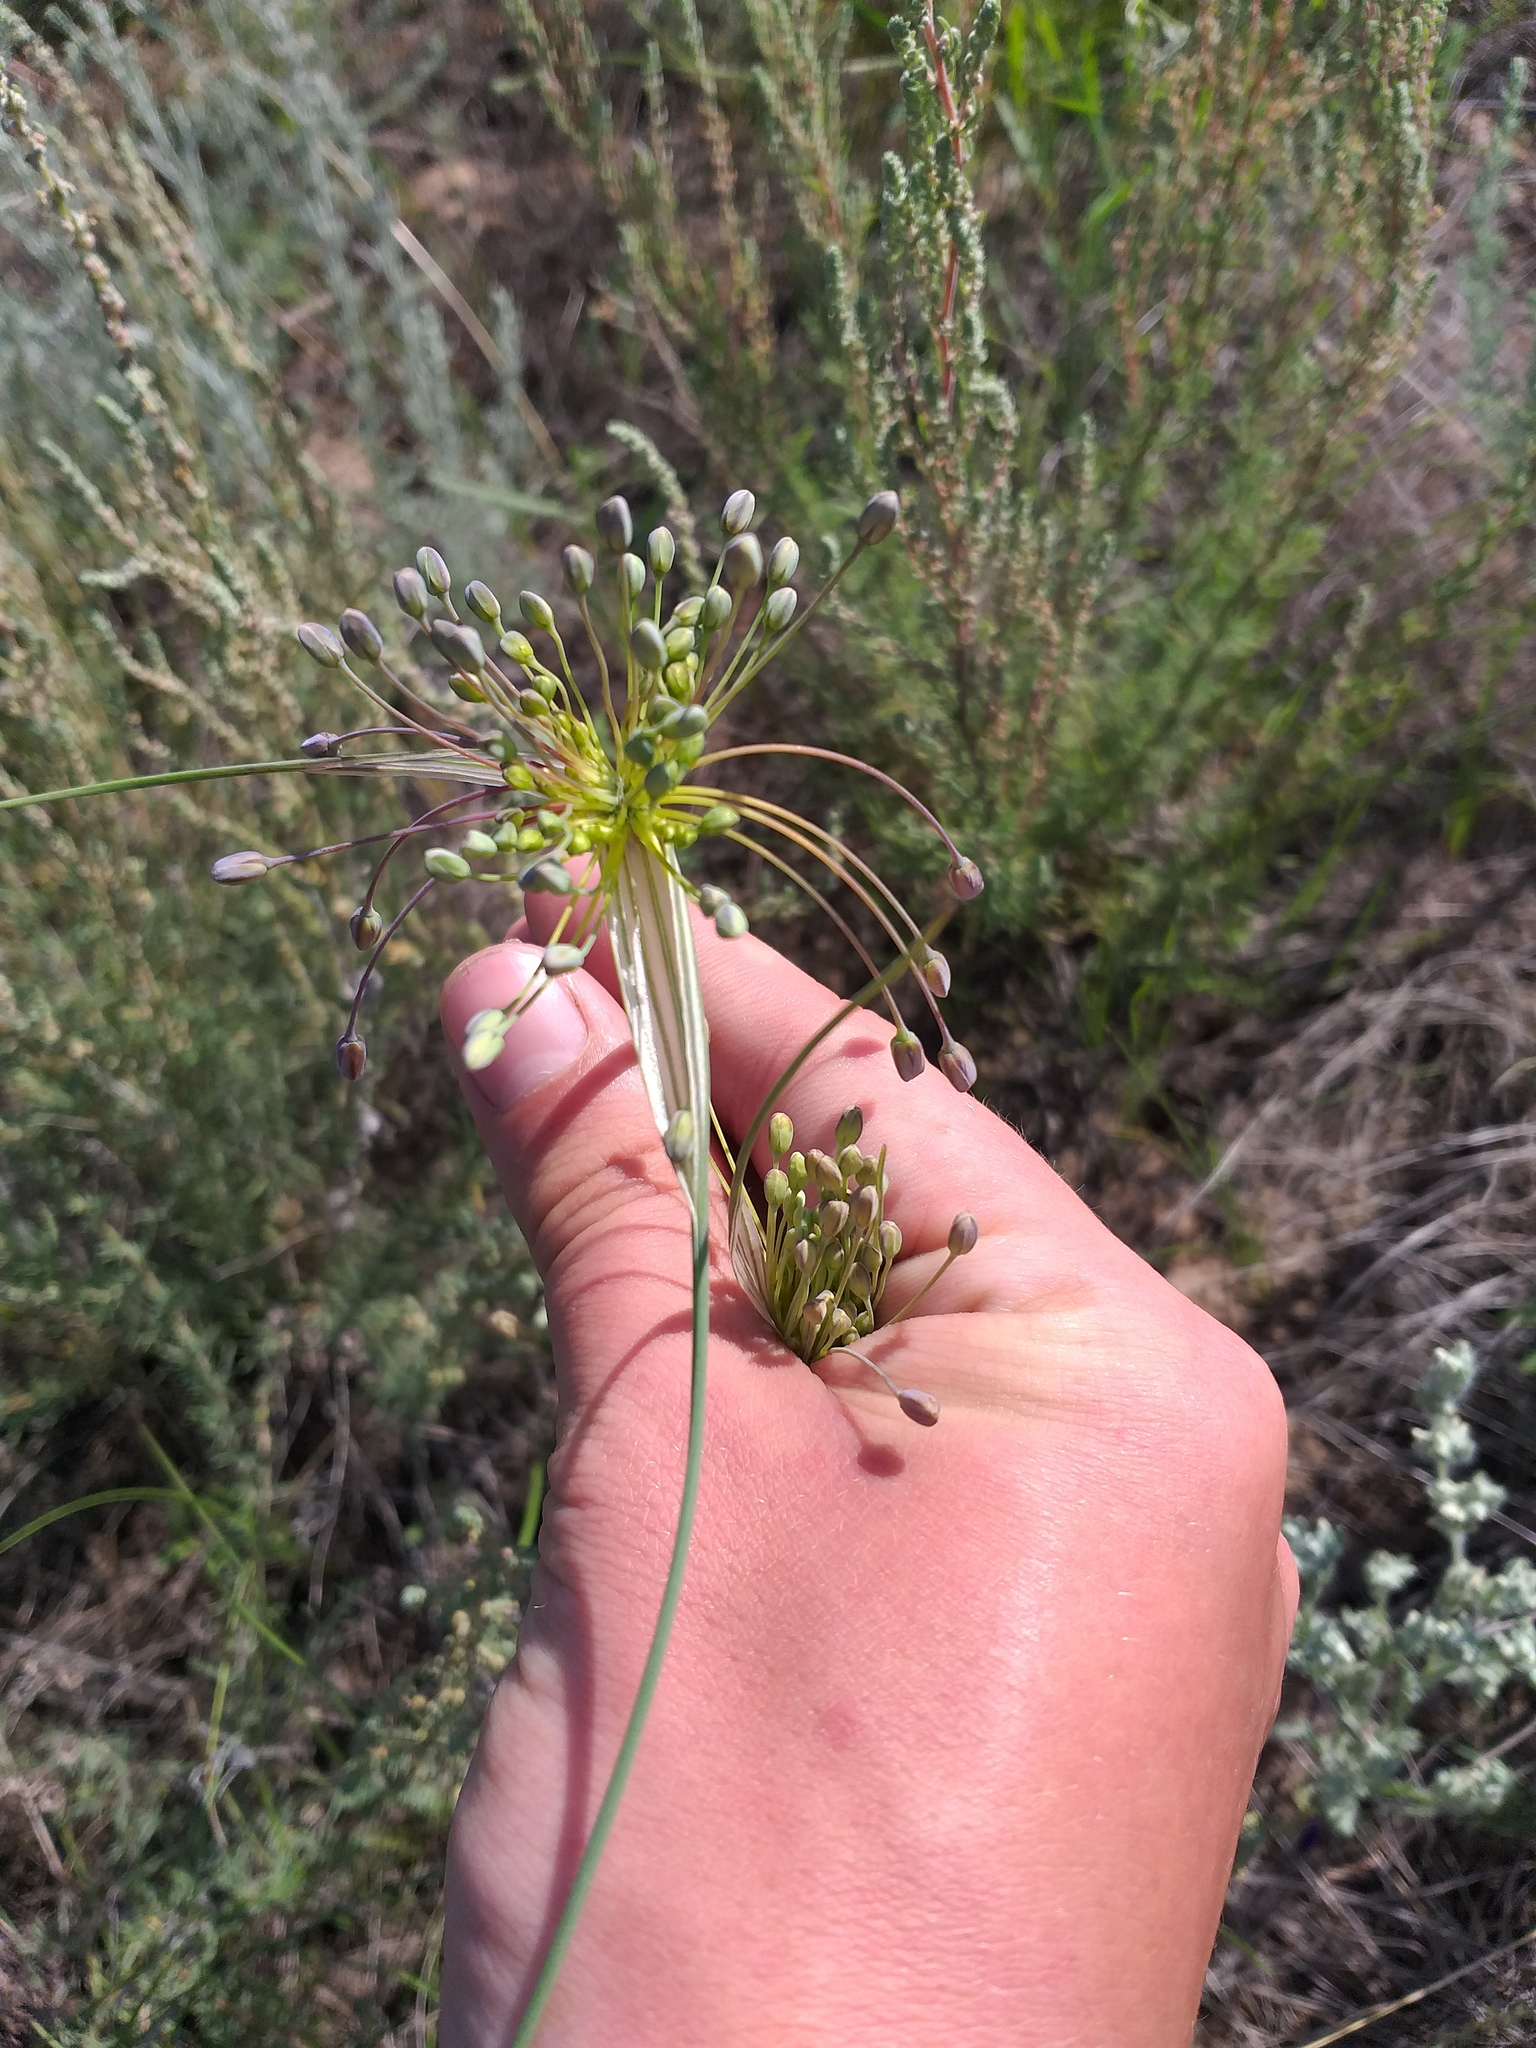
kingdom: Plantae
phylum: Tracheophyta
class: Liliopsida
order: Asparagales
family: Amaryllidaceae
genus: Allium
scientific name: Allium flavum
